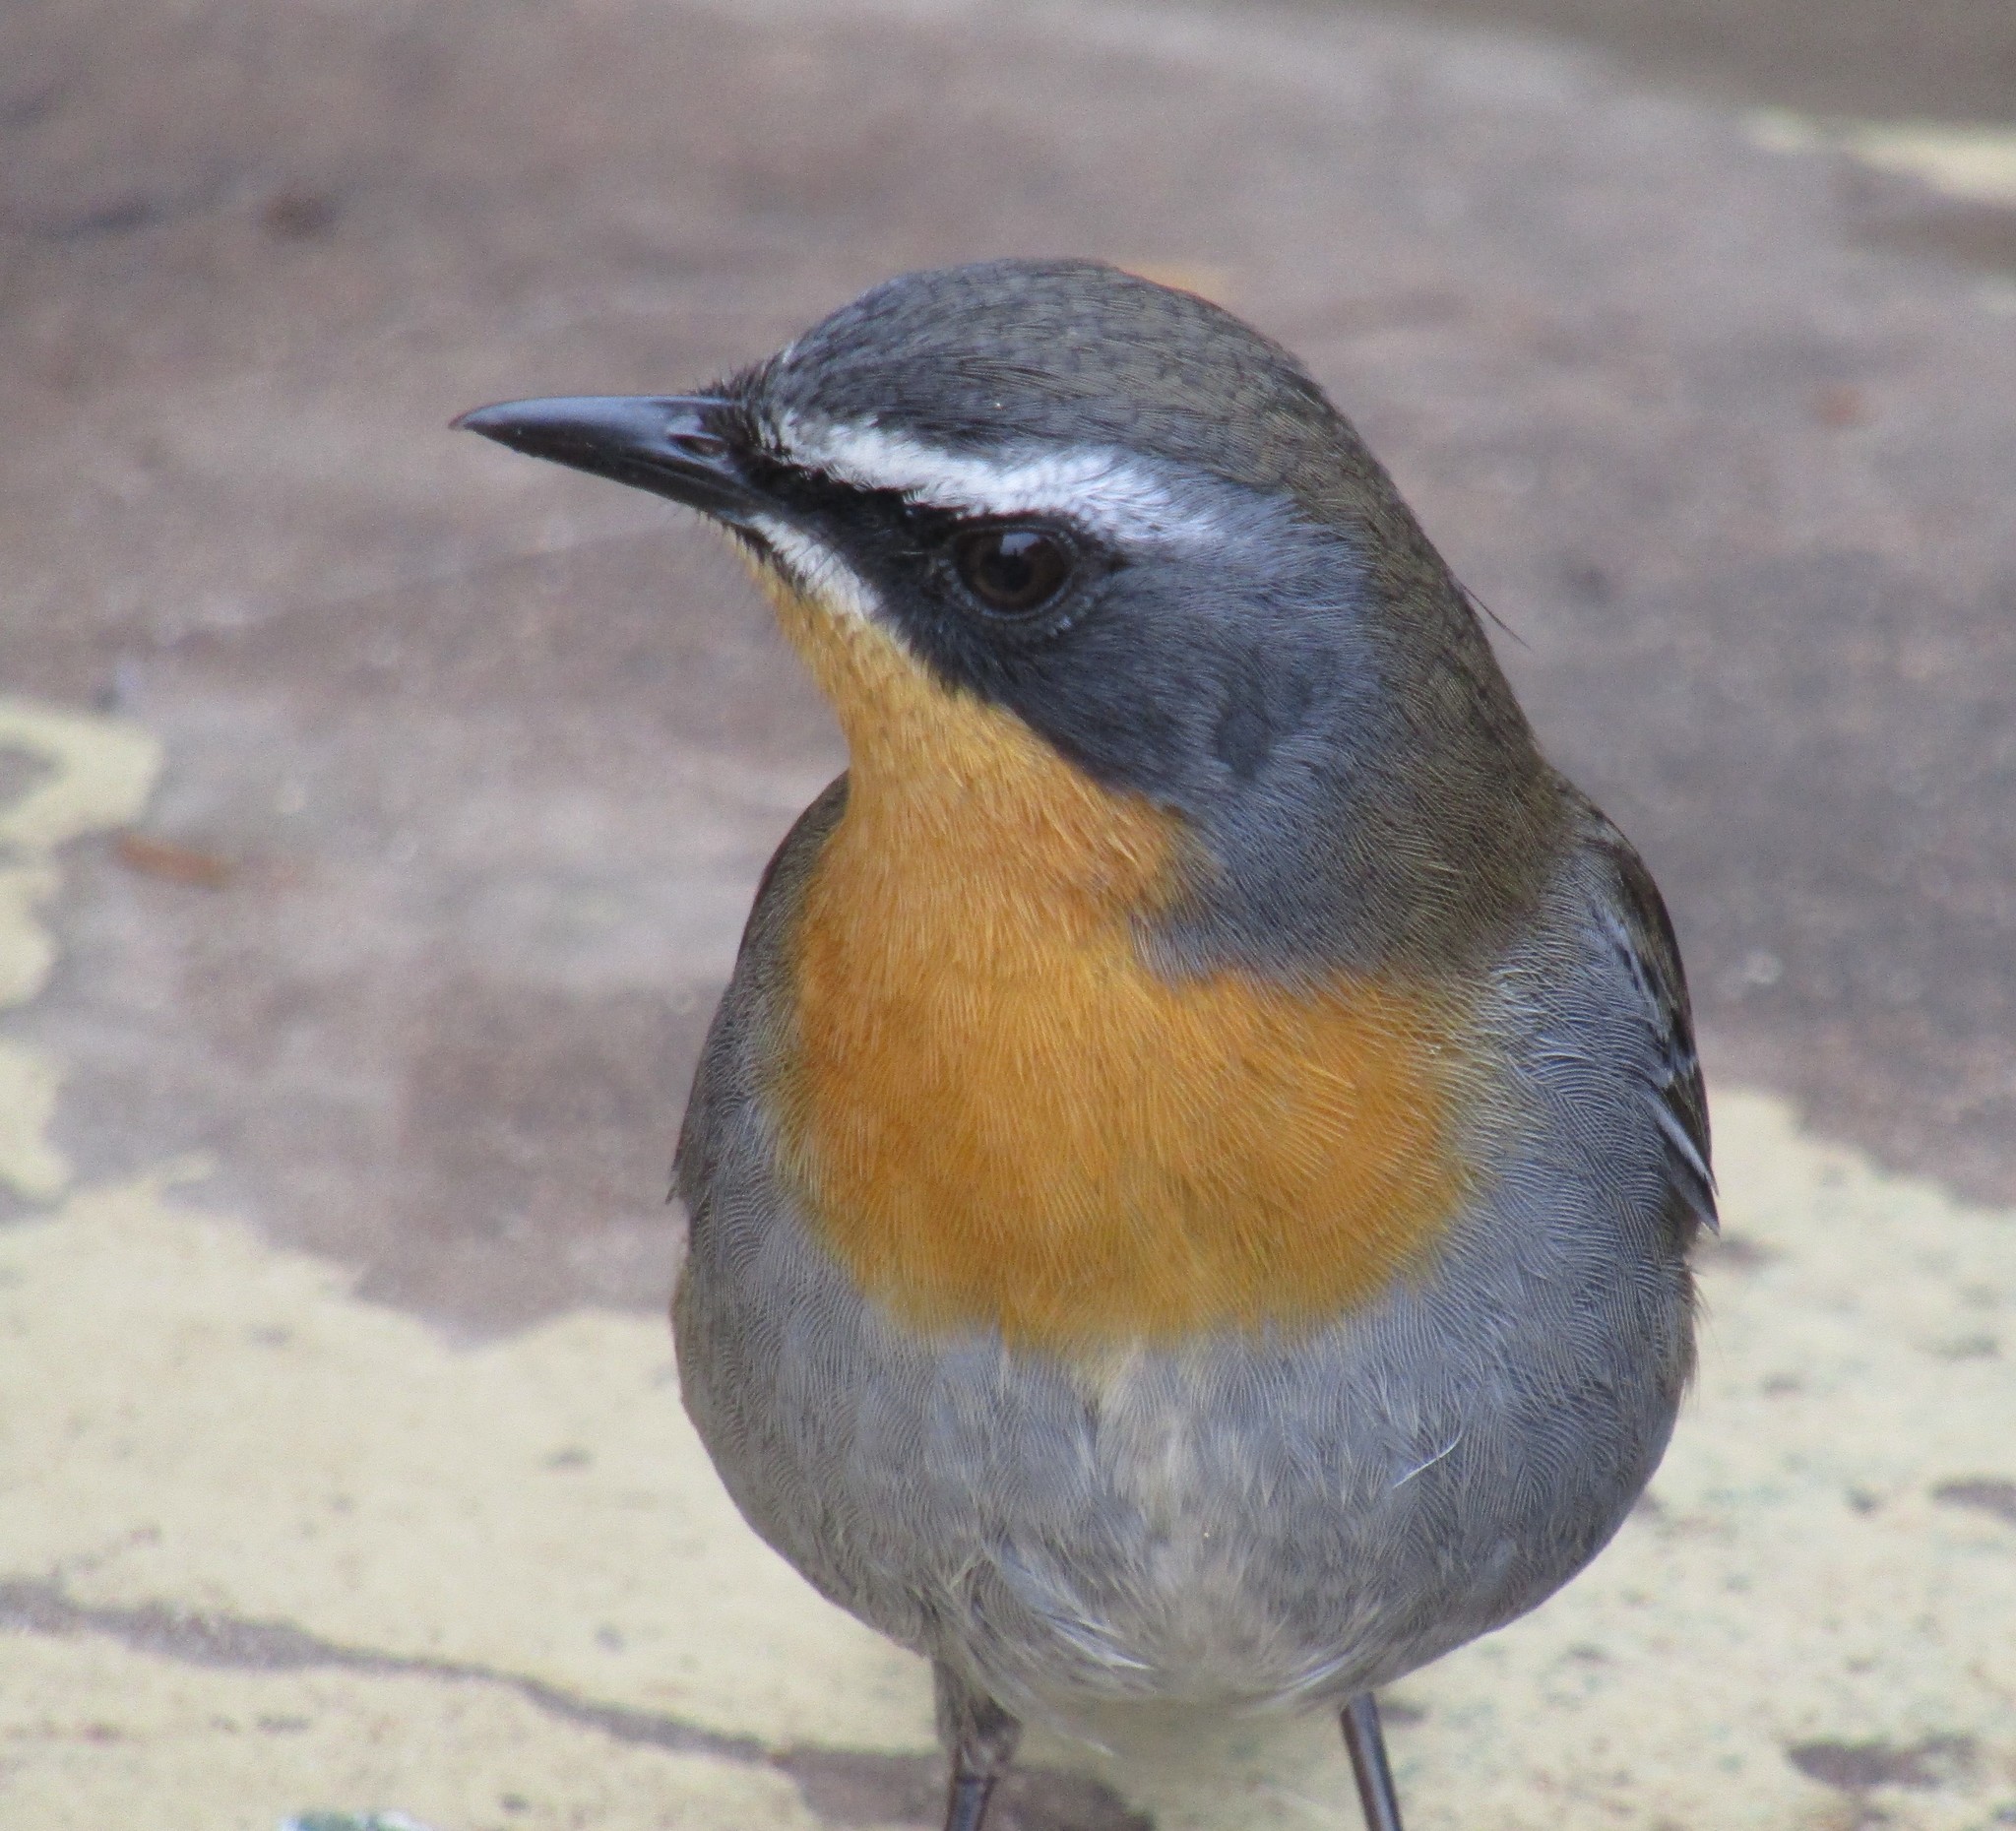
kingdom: Animalia
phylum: Chordata
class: Aves
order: Passeriformes
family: Muscicapidae
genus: Cossypha
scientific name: Cossypha caffra
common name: Cape robin-chat
